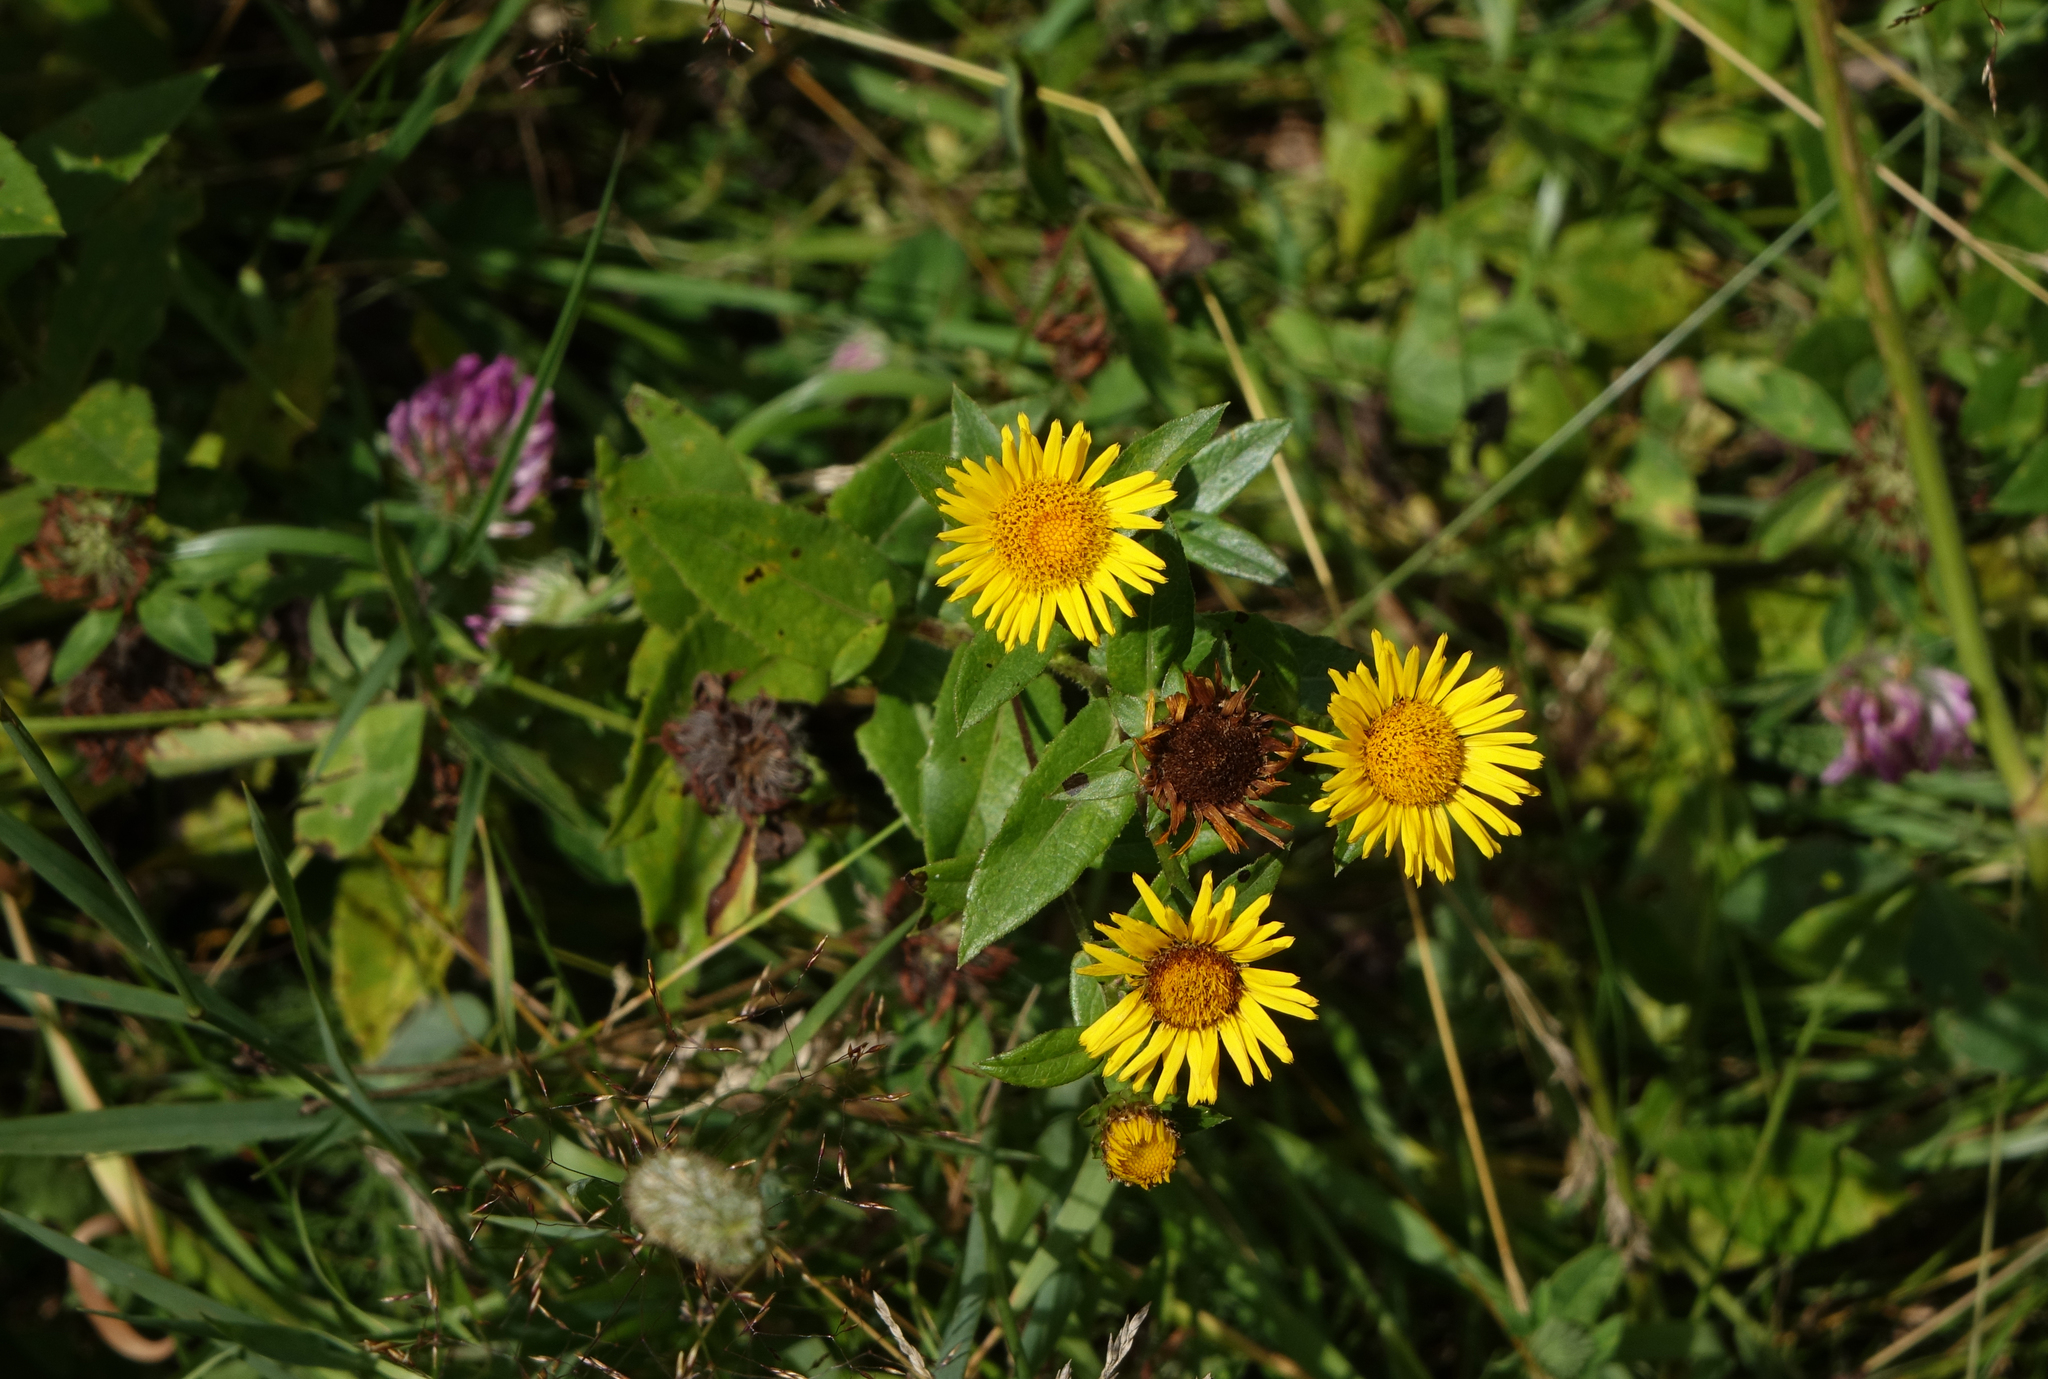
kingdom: Plantae
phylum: Tracheophyta
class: Magnoliopsida
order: Asterales
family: Asteraceae
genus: Pentanema
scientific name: Pentanema britannicum
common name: British elecampane
